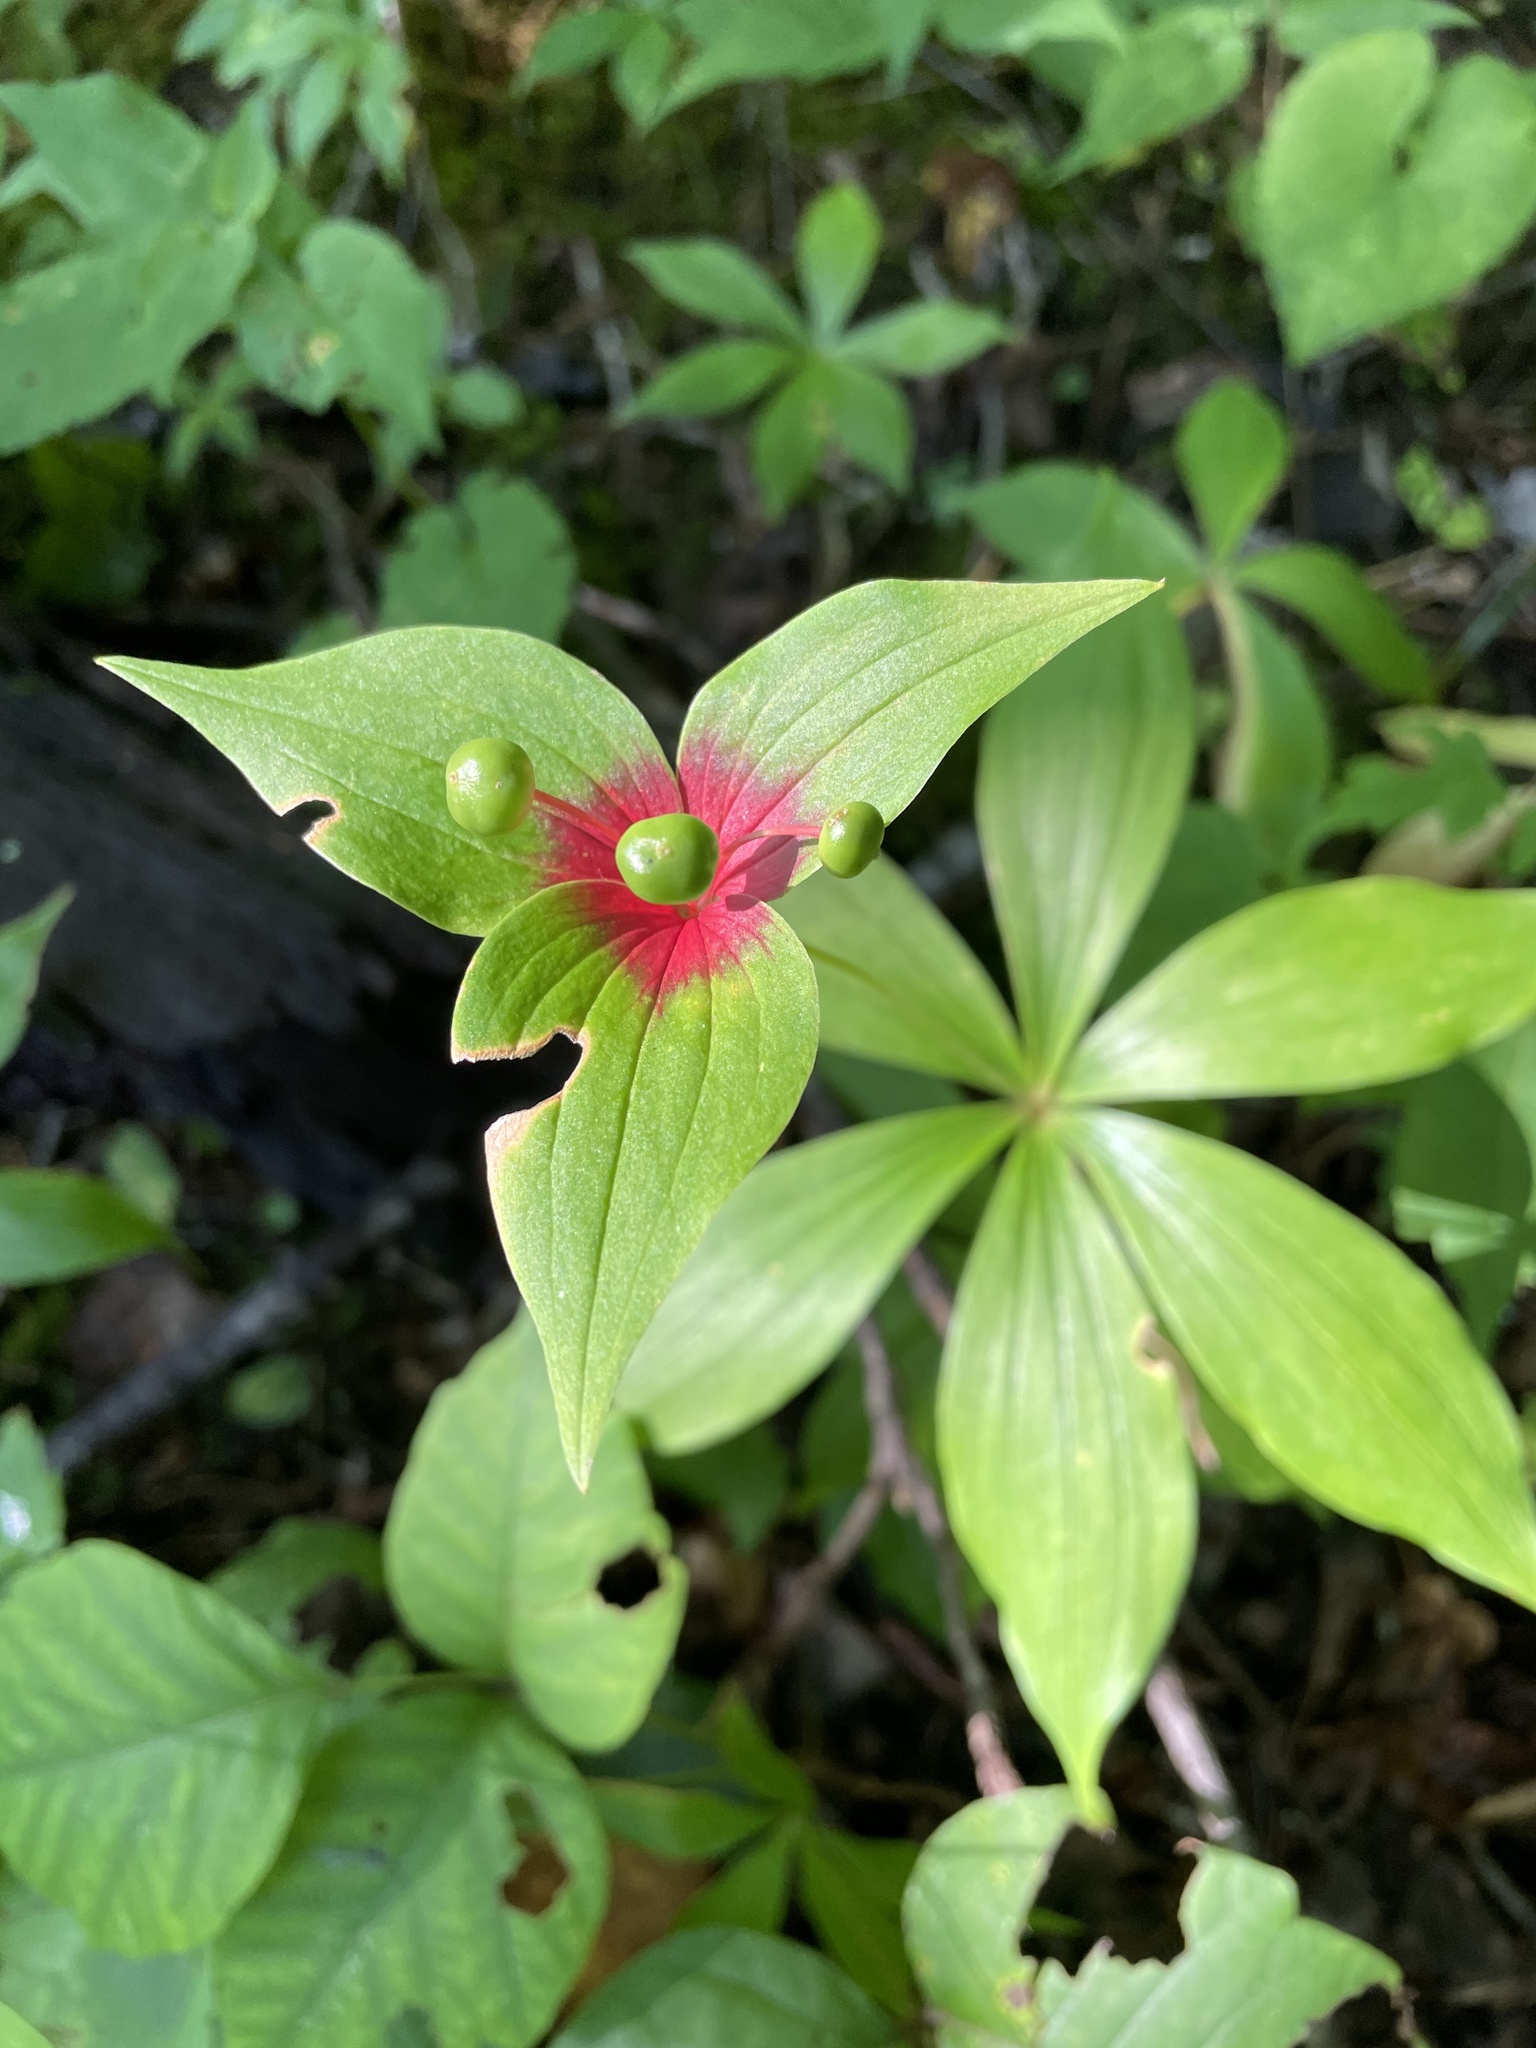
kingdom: Plantae
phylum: Tracheophyta
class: Liliopsida
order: Liliales
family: Liliaceae
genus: Medeola
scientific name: Medeola virginiana
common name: Indian cucumber-root
